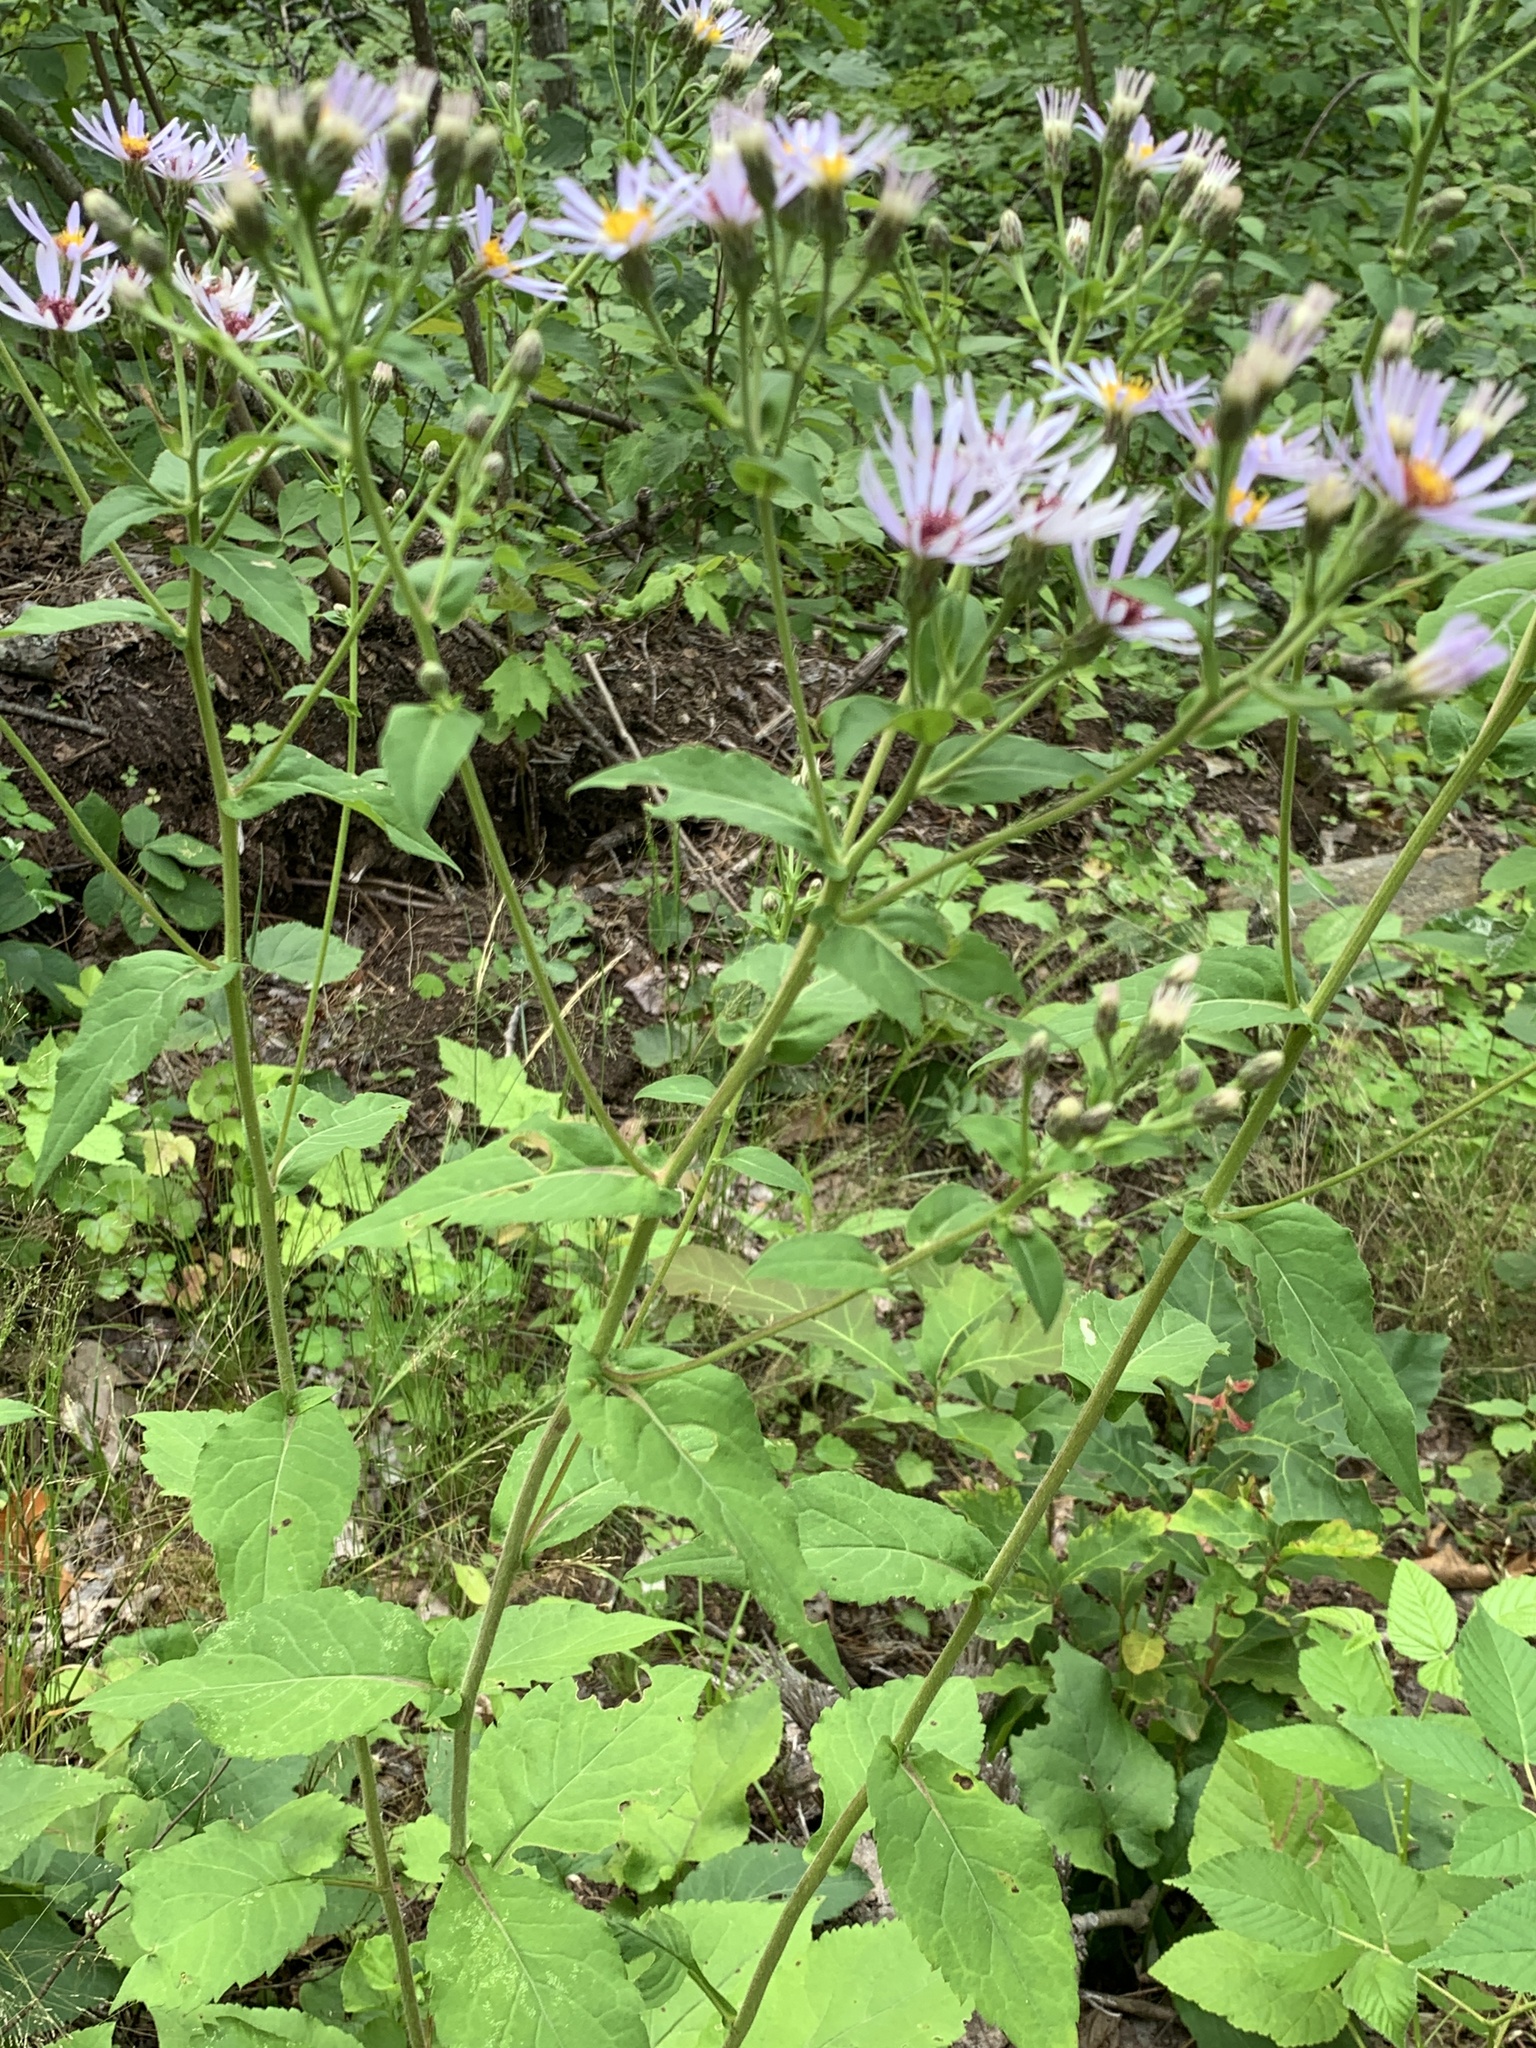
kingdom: Plantae
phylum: Tracheophyta
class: Magnoliopsida
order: Asterales
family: Asteraceae
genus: Eurybia
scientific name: Eurybia macrophylla
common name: Big-leaved aster
